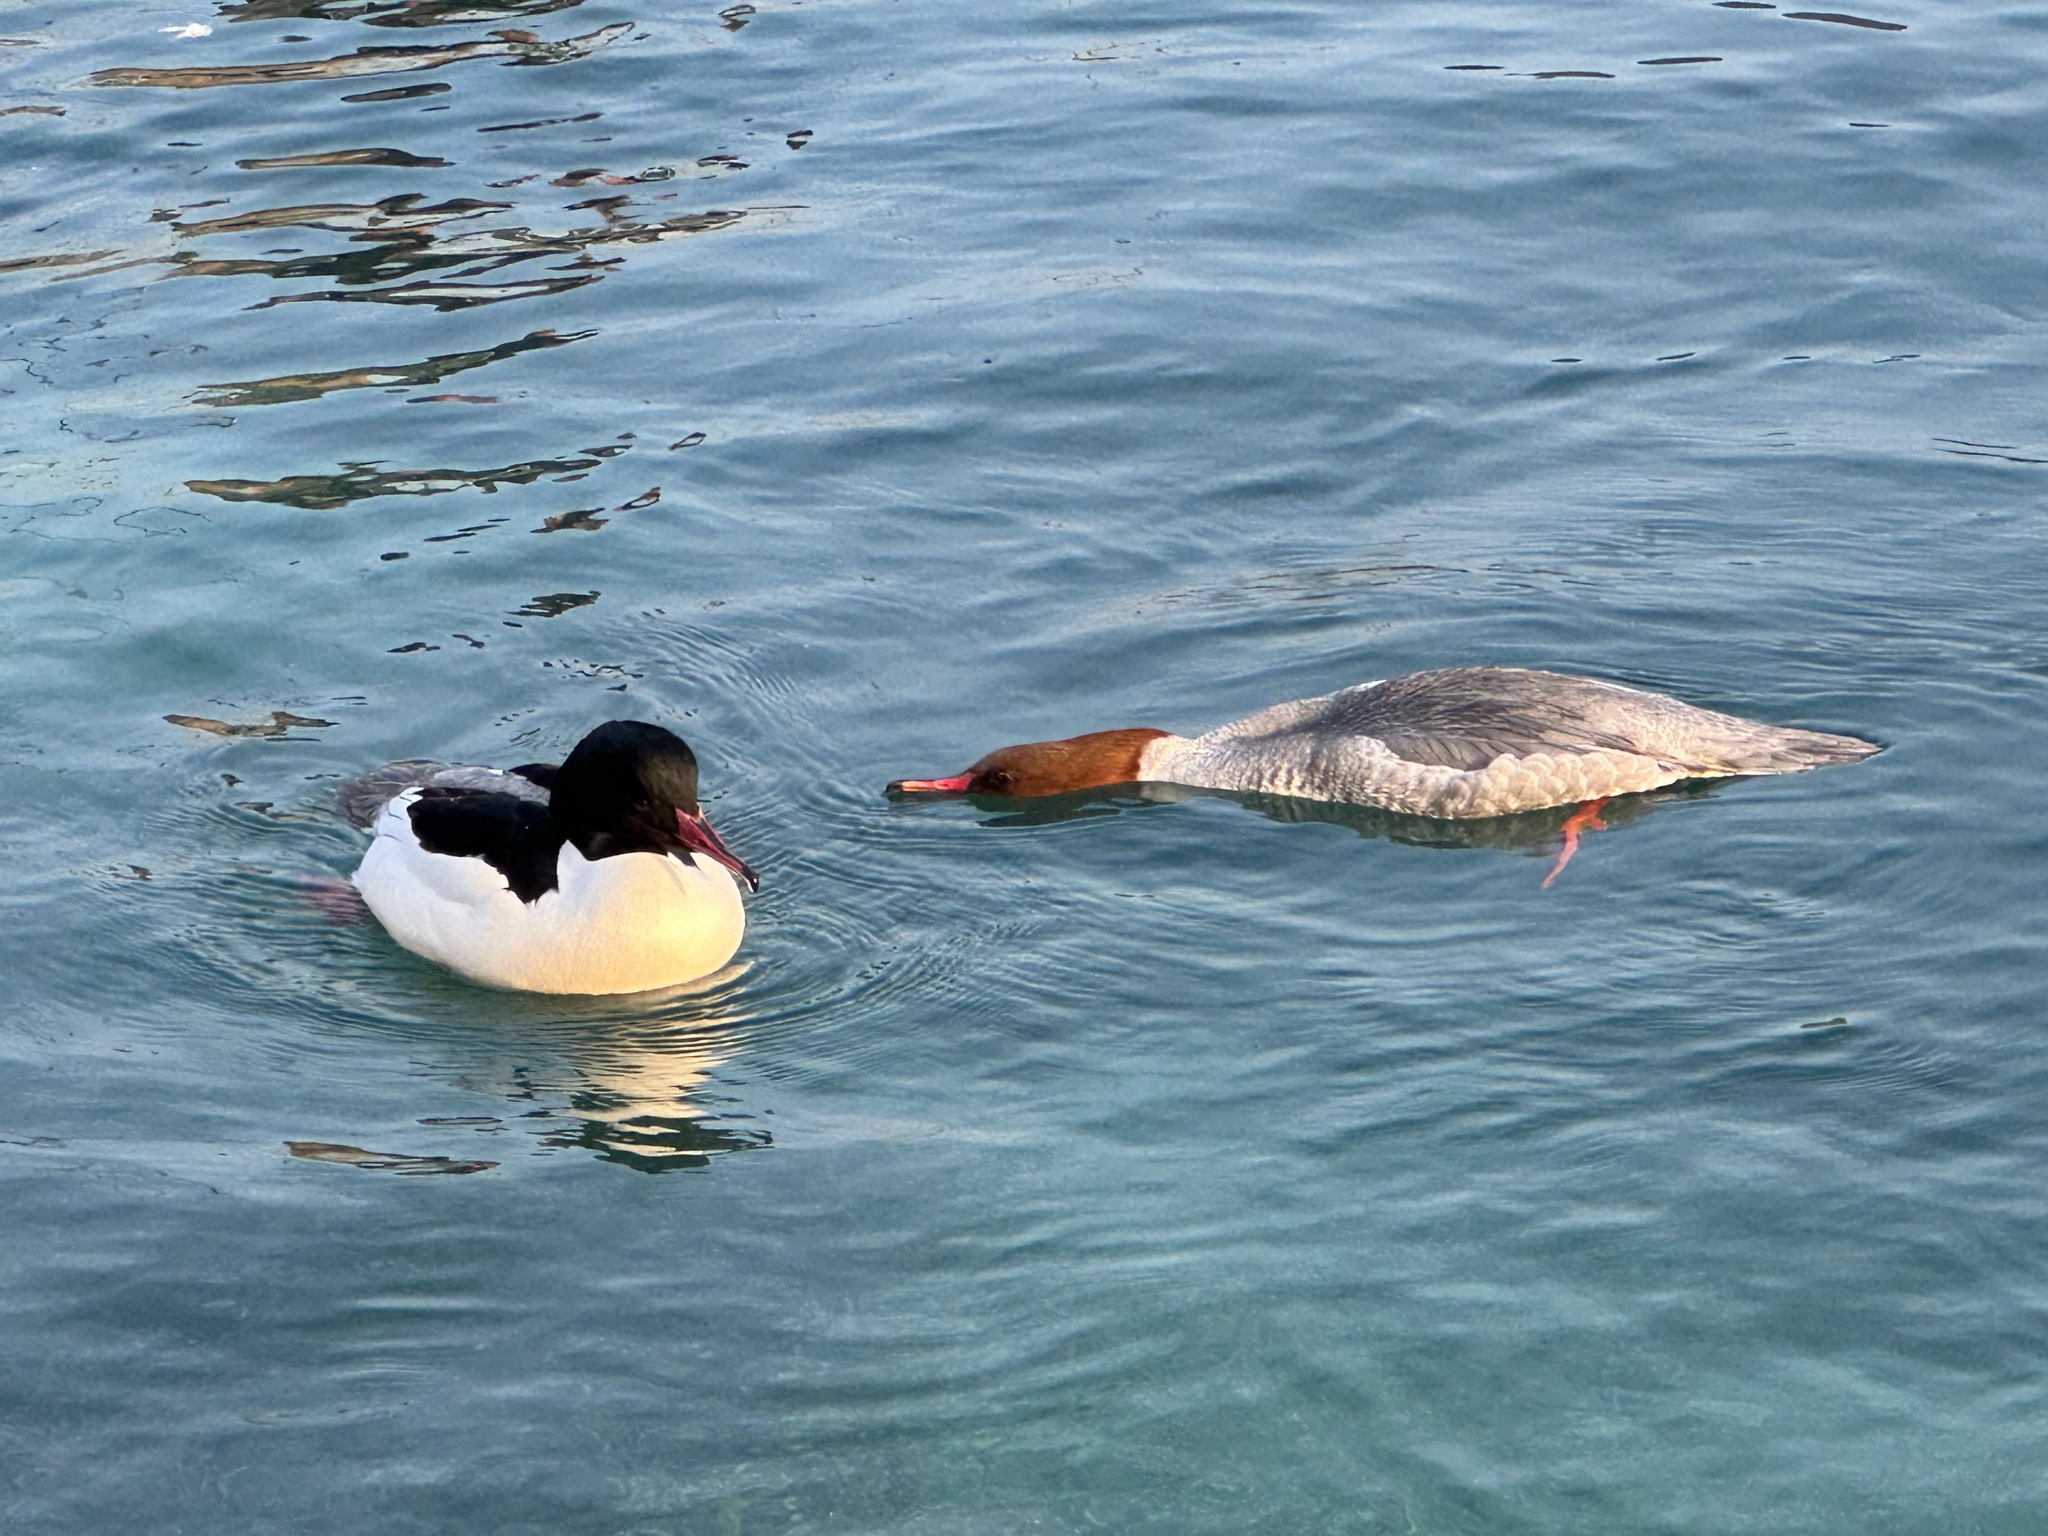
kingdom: Animalia
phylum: Chordata
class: Aves
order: Anseriformes
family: Anatidae
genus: Mergus
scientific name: Mergus merganser
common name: Common merganser
